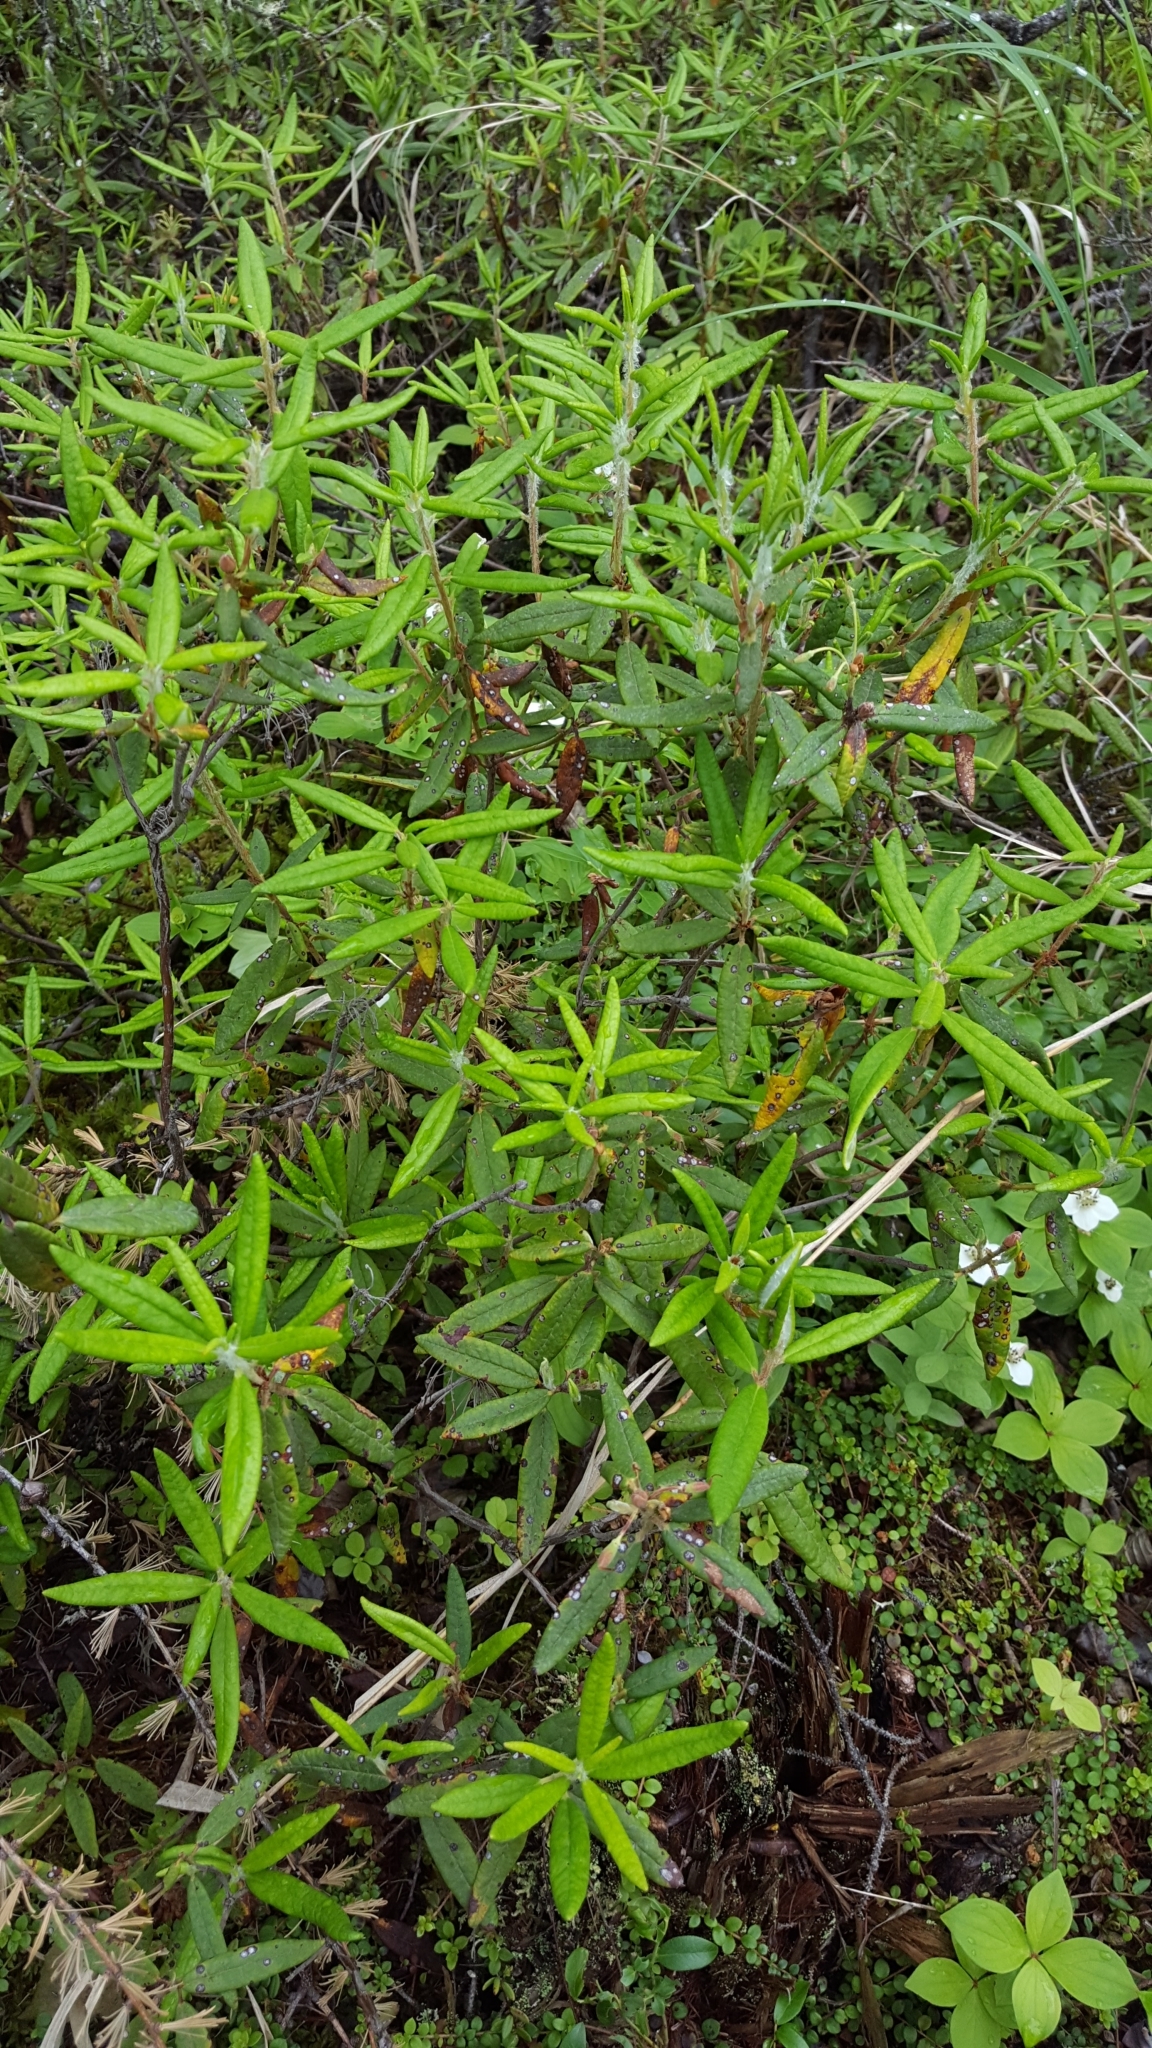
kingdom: Plantae
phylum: Tracheophyta
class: Magnoliopsida
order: Ericales
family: Ericaceae
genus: Rhododendron
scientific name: Rhododendron groenlandicum
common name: Bog labrador tea
